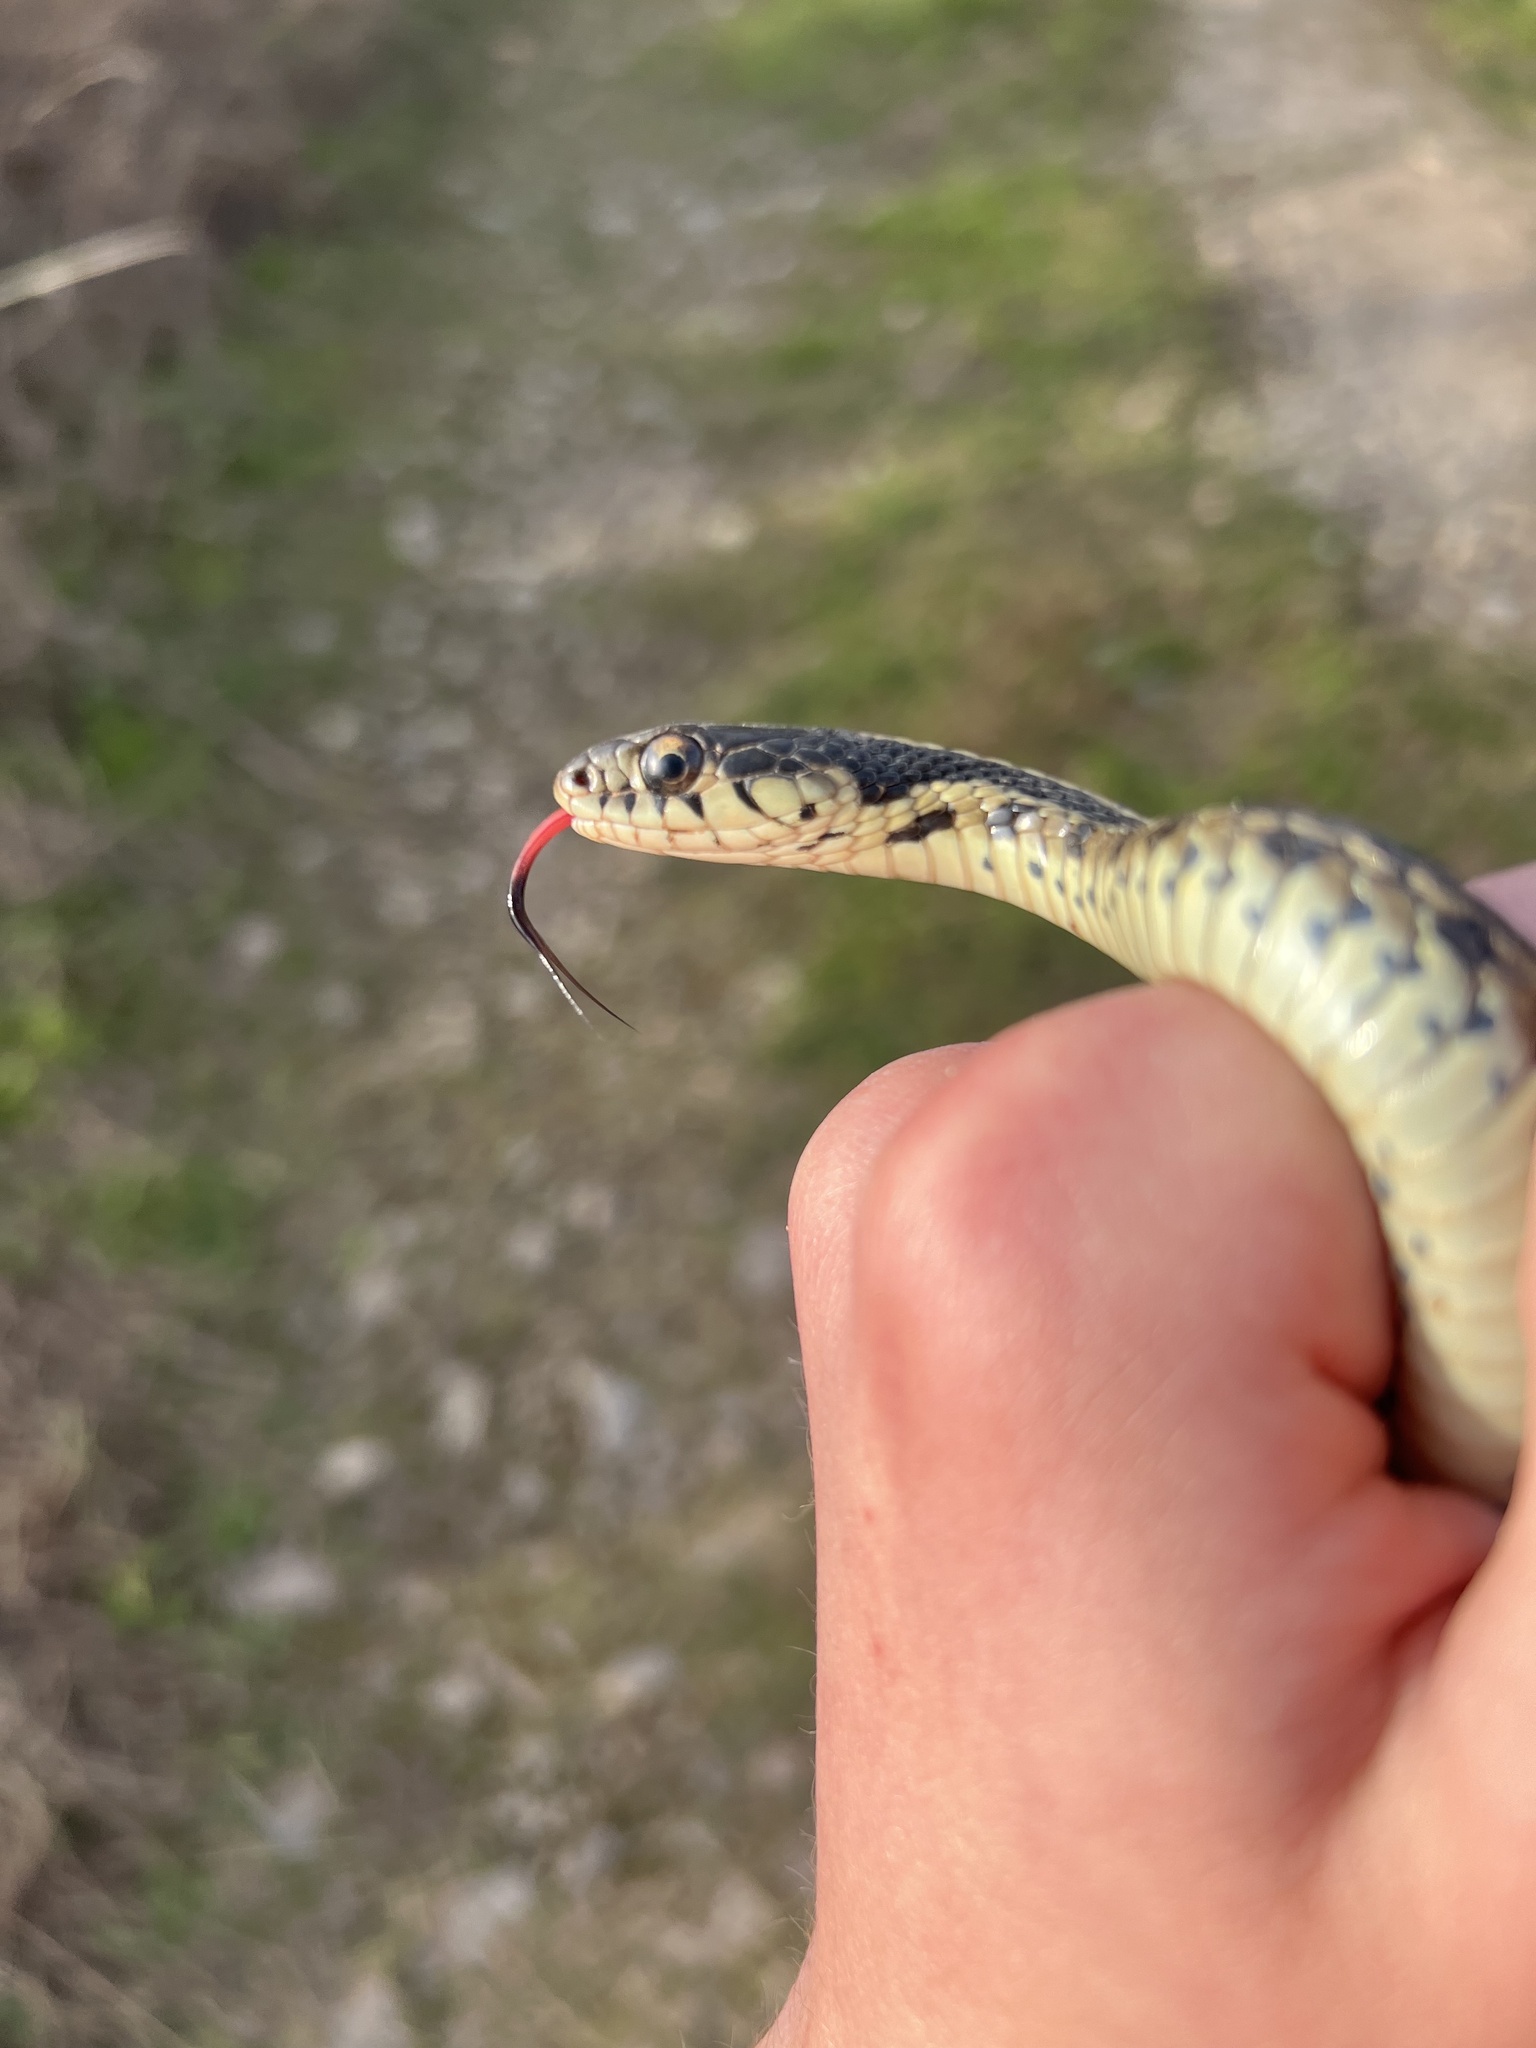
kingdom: Animalia
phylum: Chordata
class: Squamata
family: Colubridae
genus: Thamnophis
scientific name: Thamnophis sirtalis
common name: Common garter snake
